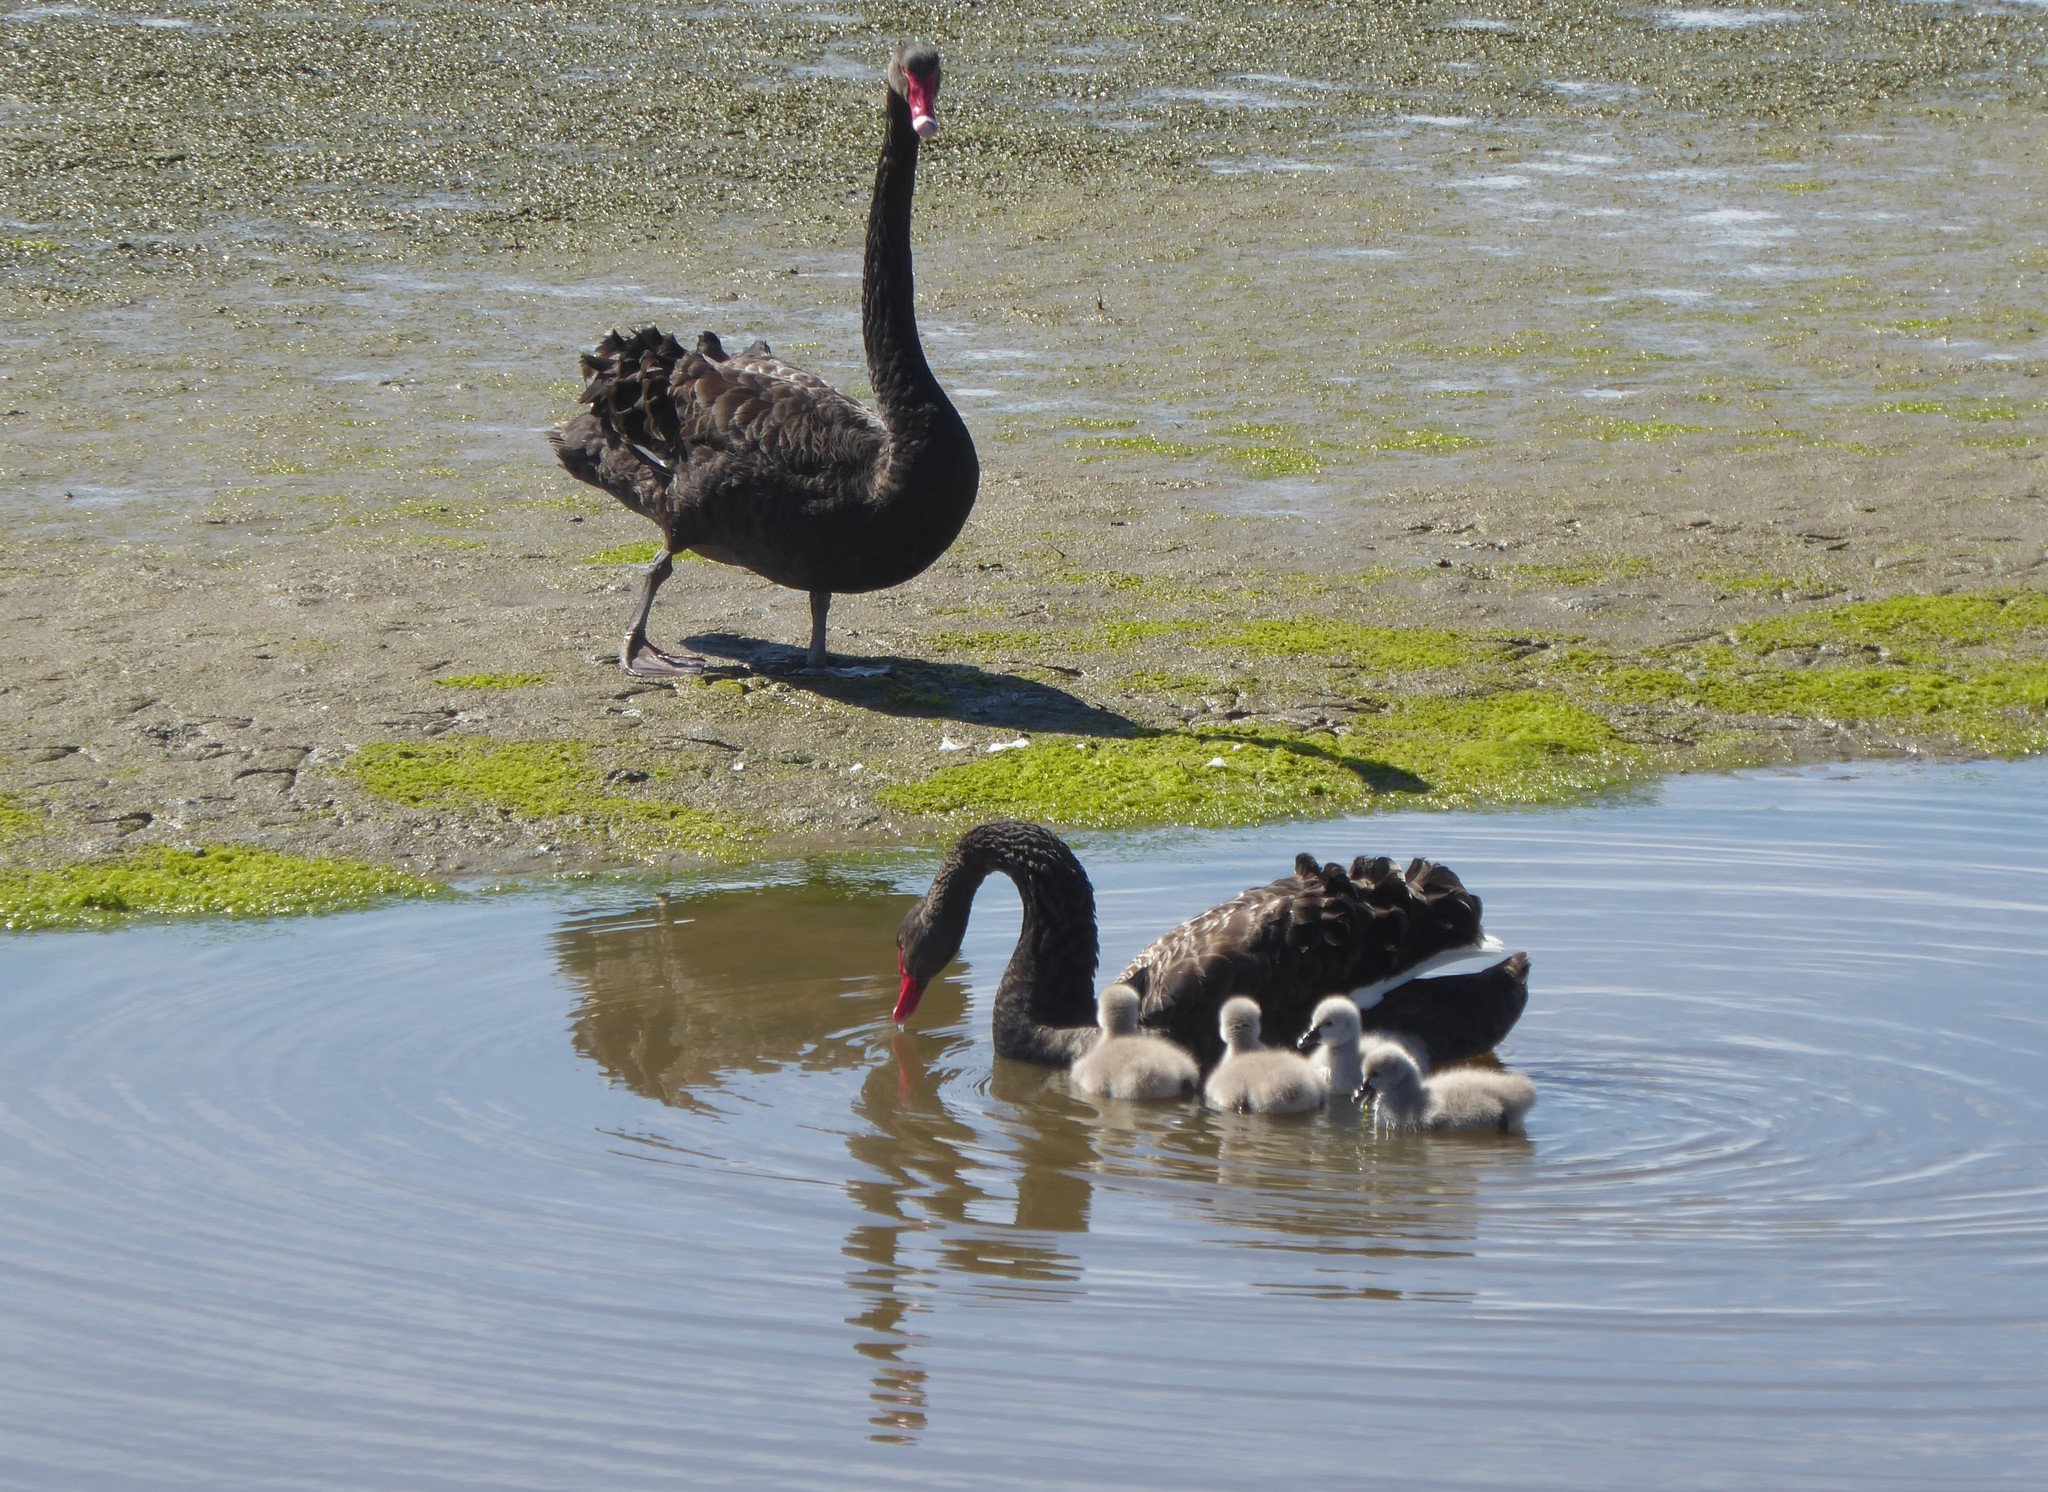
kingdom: Animalia
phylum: Chordata
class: Aves
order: Anseriformes
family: Anatidae
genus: Cygnus
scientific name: Cygnus atratus
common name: Black swan
